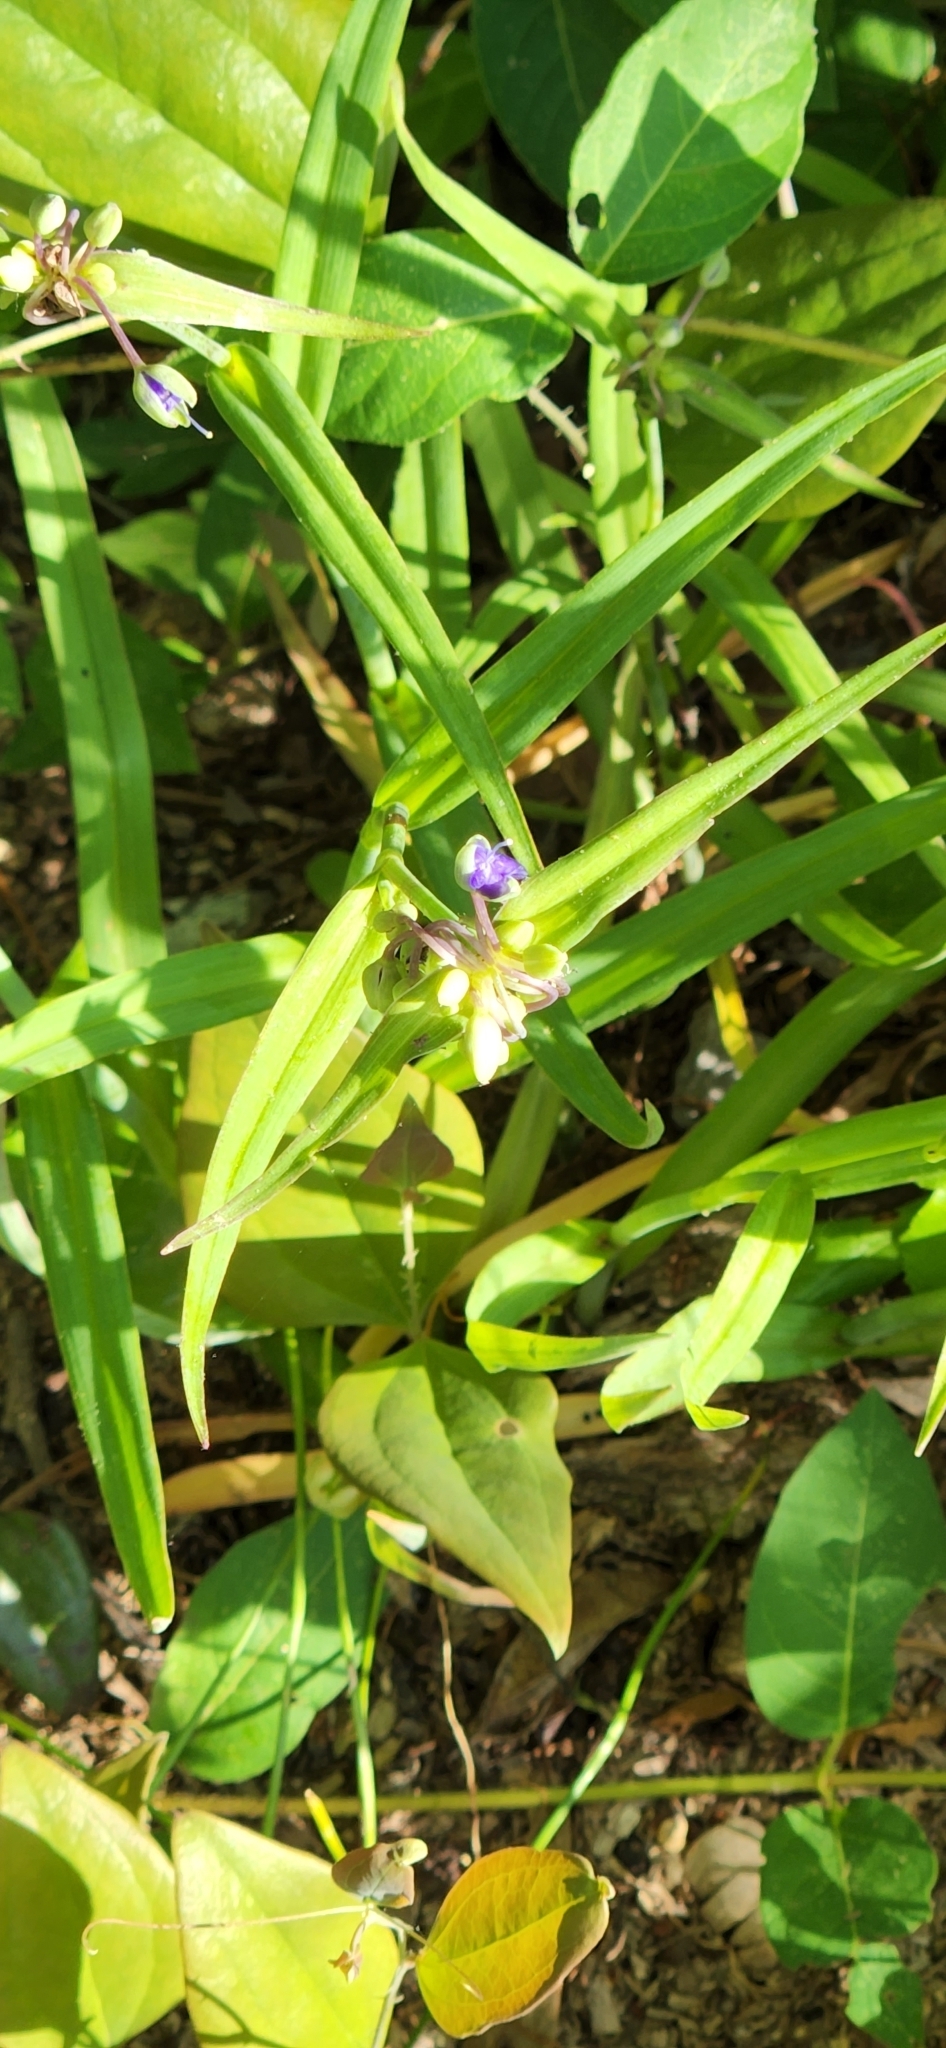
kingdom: Plantae
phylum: Tracheophyta
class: Liliopsida
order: Commelinales
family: Commelinaceae
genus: Tradescantia
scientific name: Tradescantia ohiensis
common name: Ohio spiderwort
